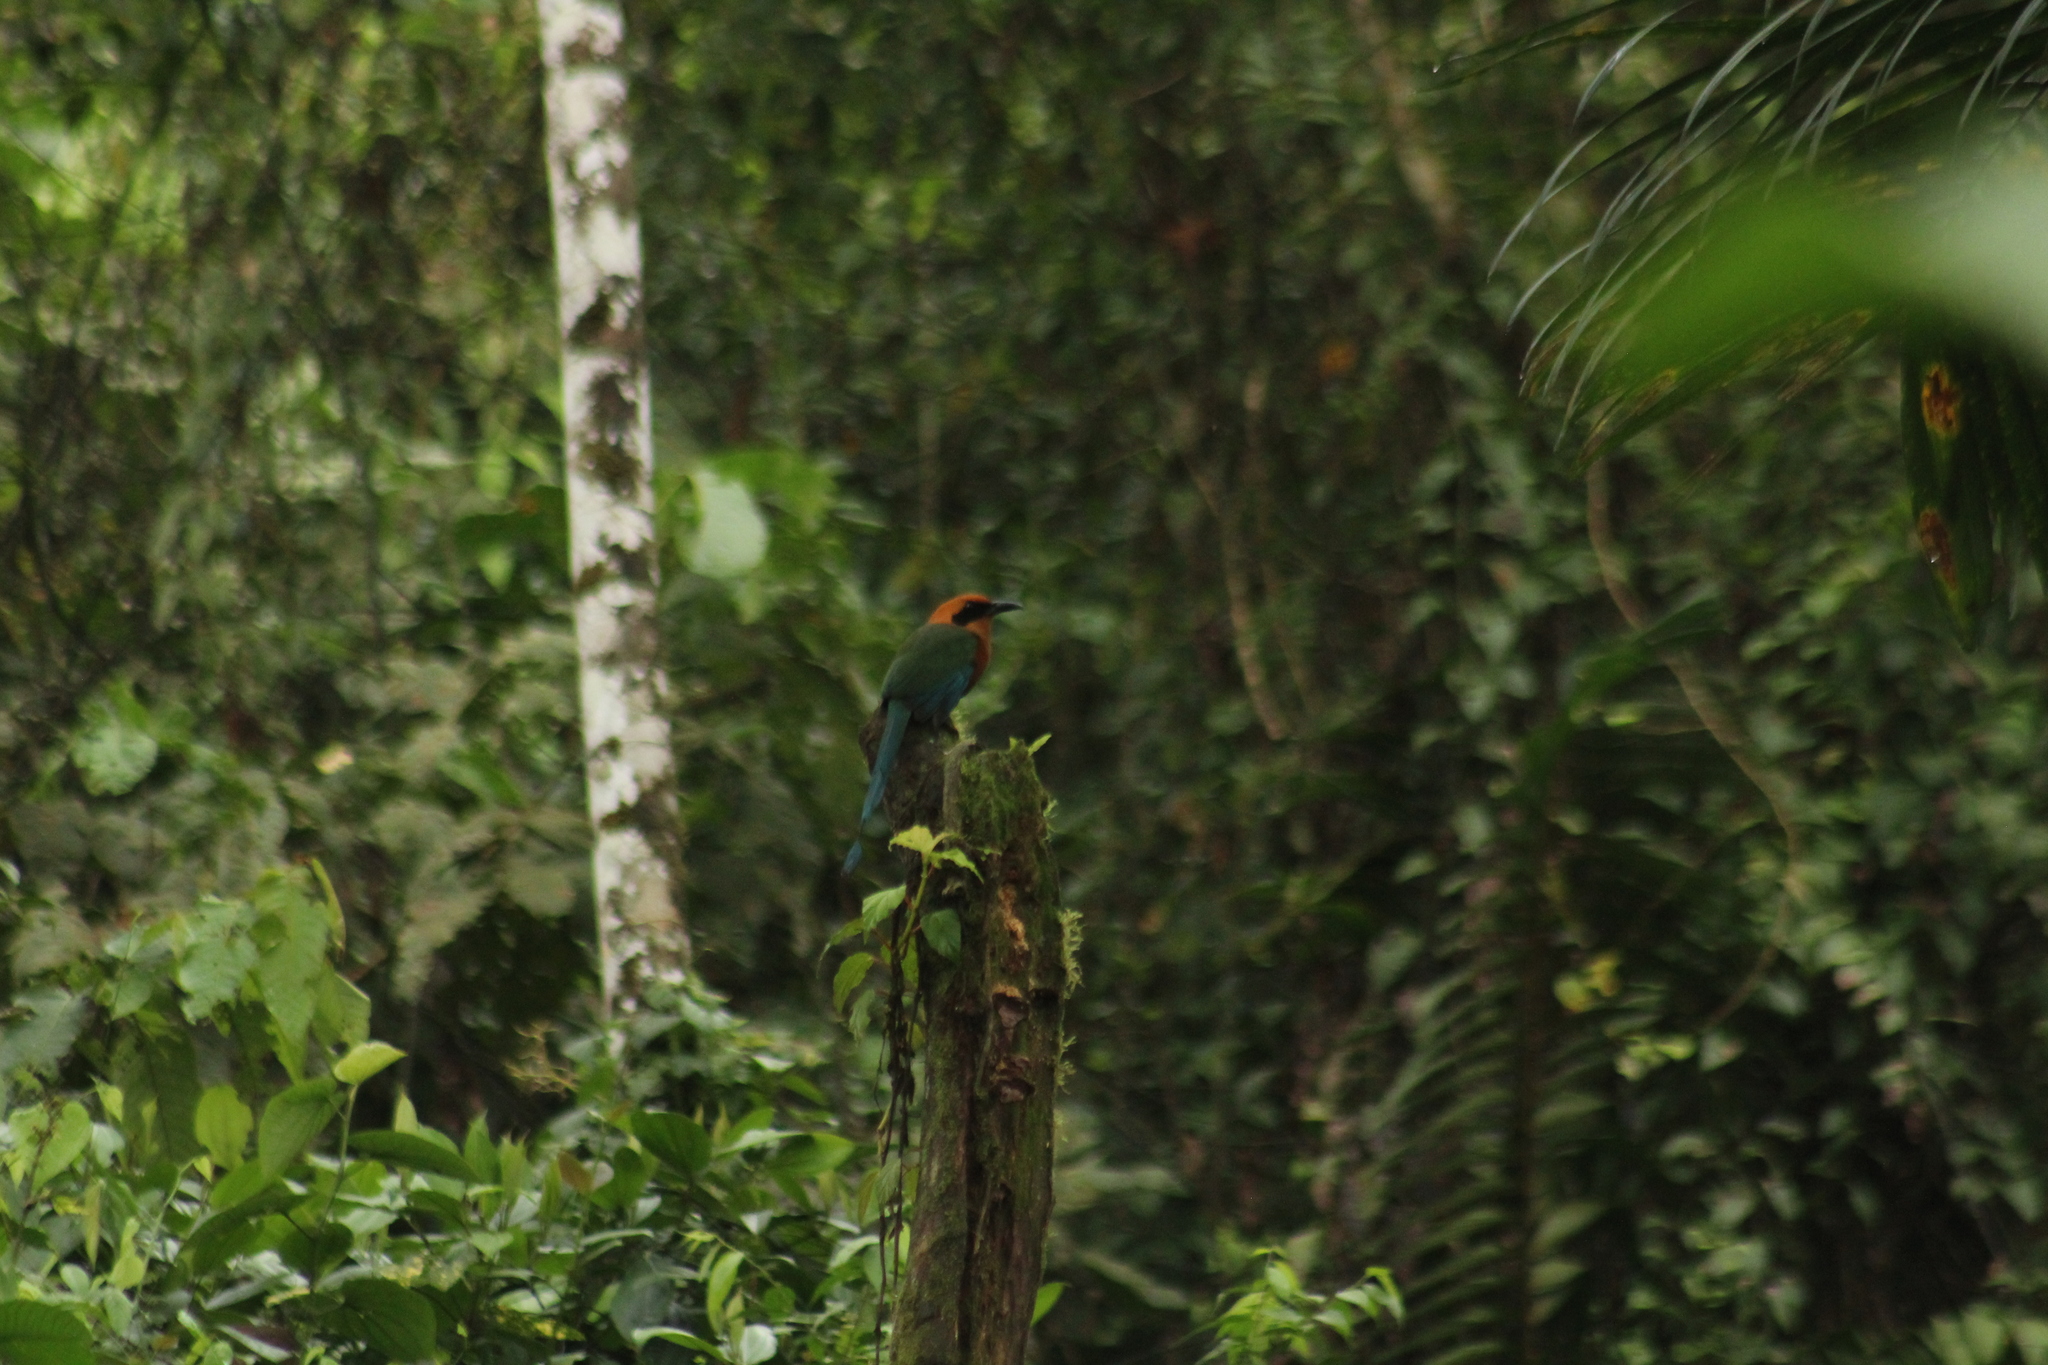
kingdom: Animalia
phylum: Chordata
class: Aves
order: Coraciiformes
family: Momotidae
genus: Baryphthengus
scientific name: Baryphthengus martii
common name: Rufous motmot
